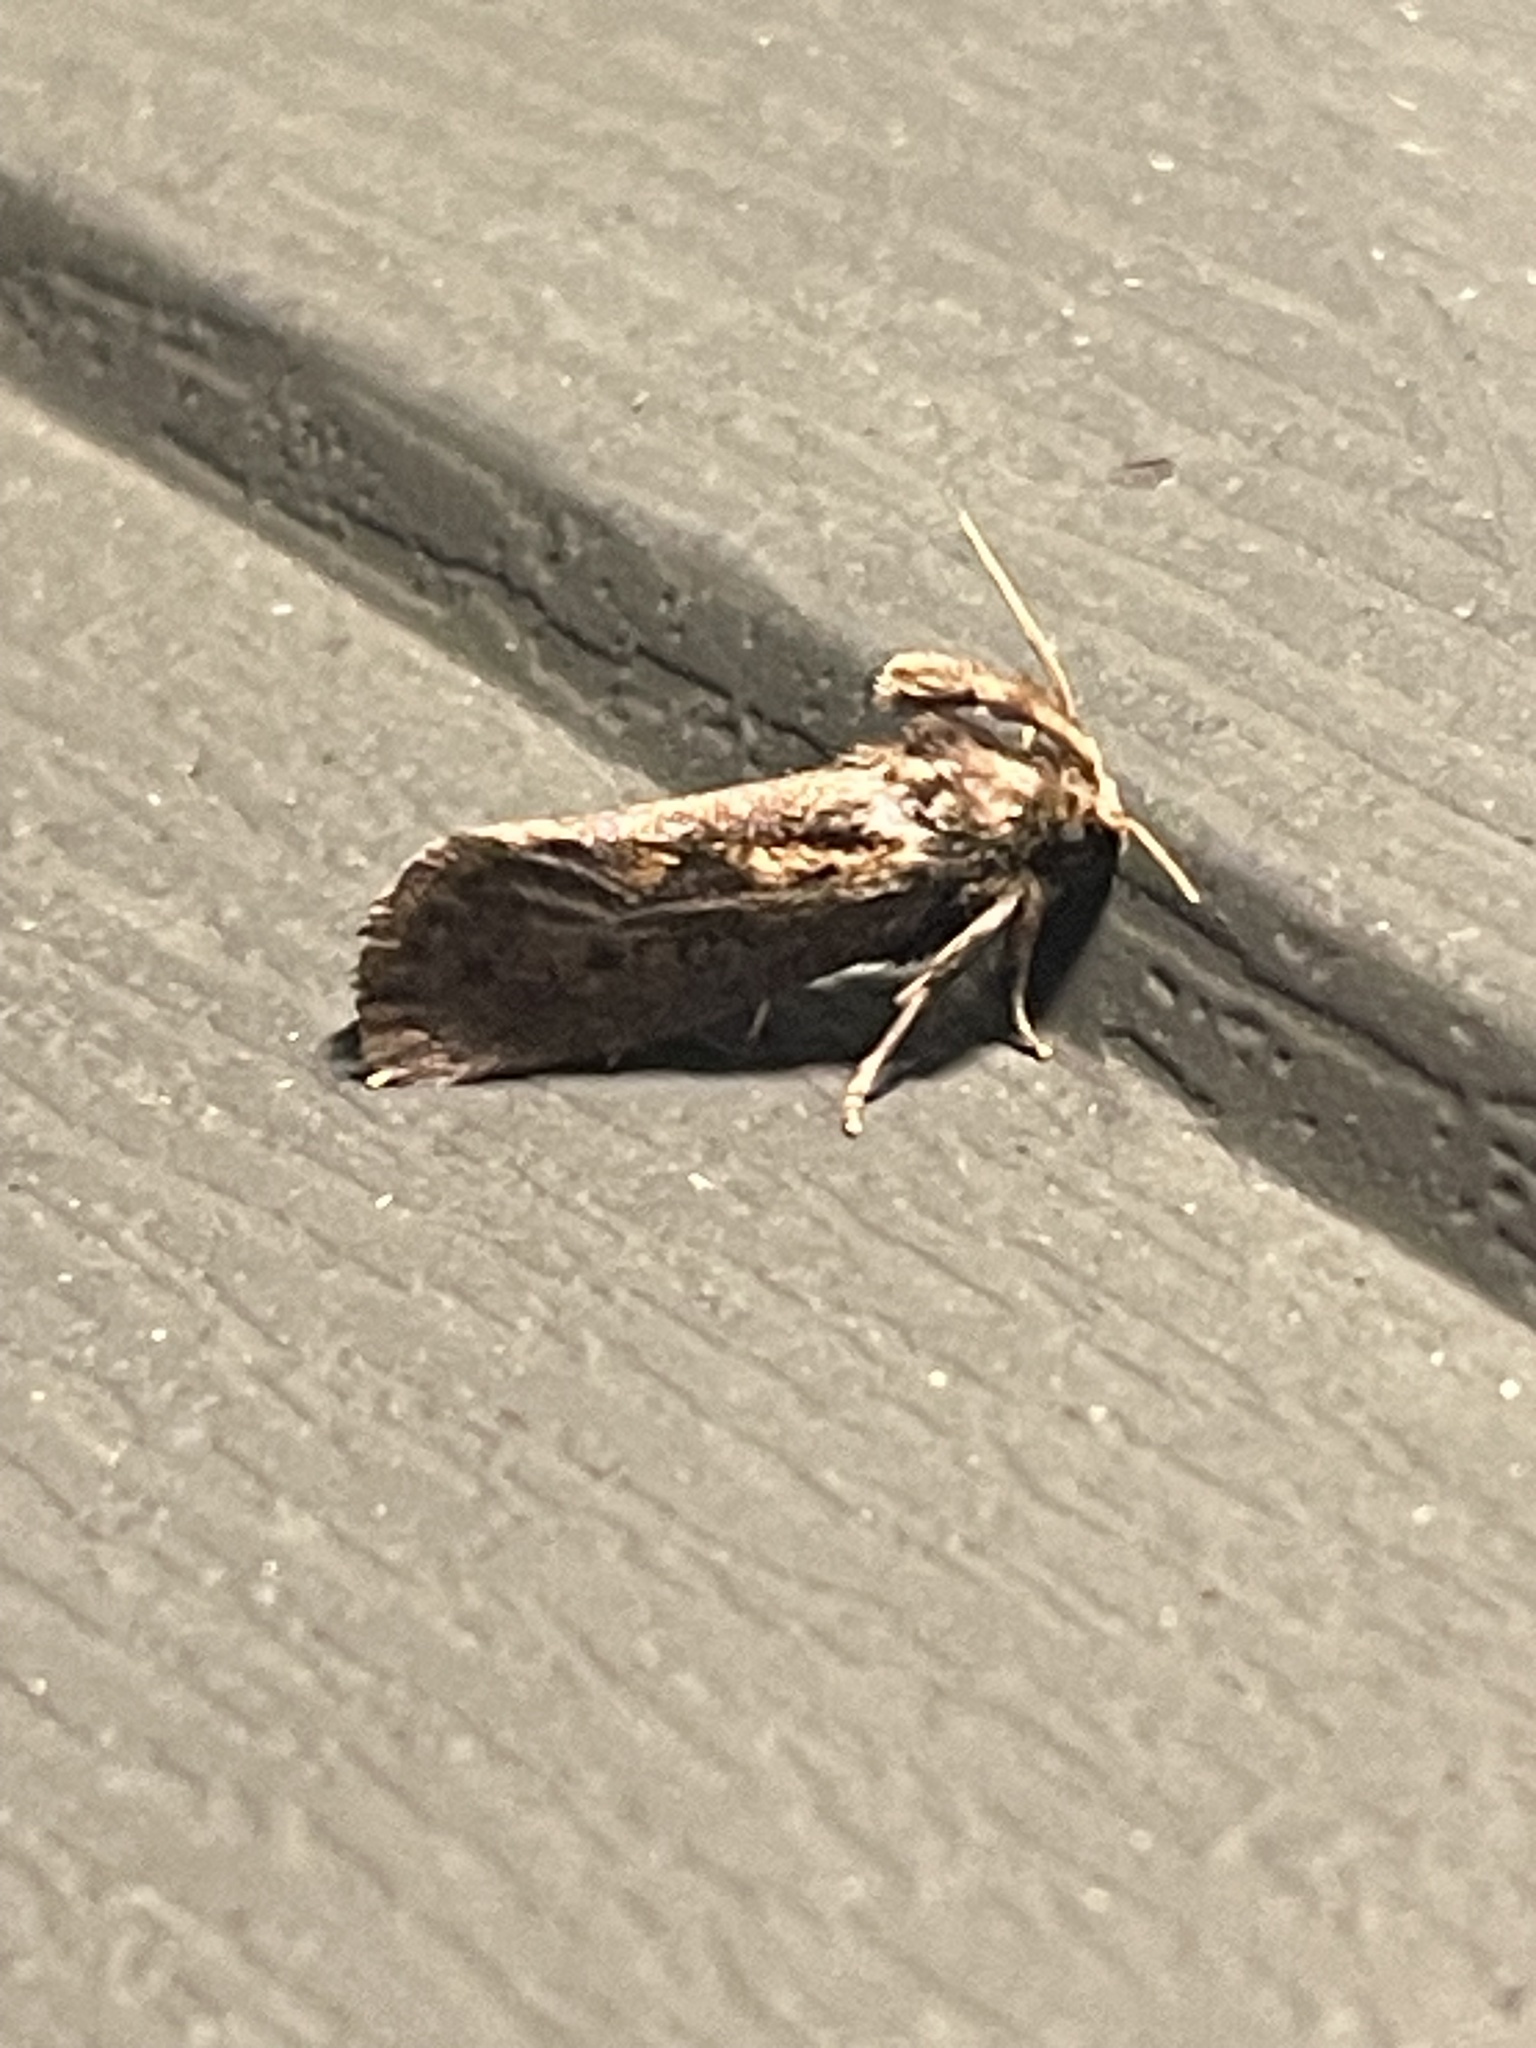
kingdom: Animalia
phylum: Arthropoda
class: Insecta
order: Lepidoptera
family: Tineidae
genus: Acrolophus
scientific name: Acrolophus popeanella
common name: Clemens' grass tubeworm moth
